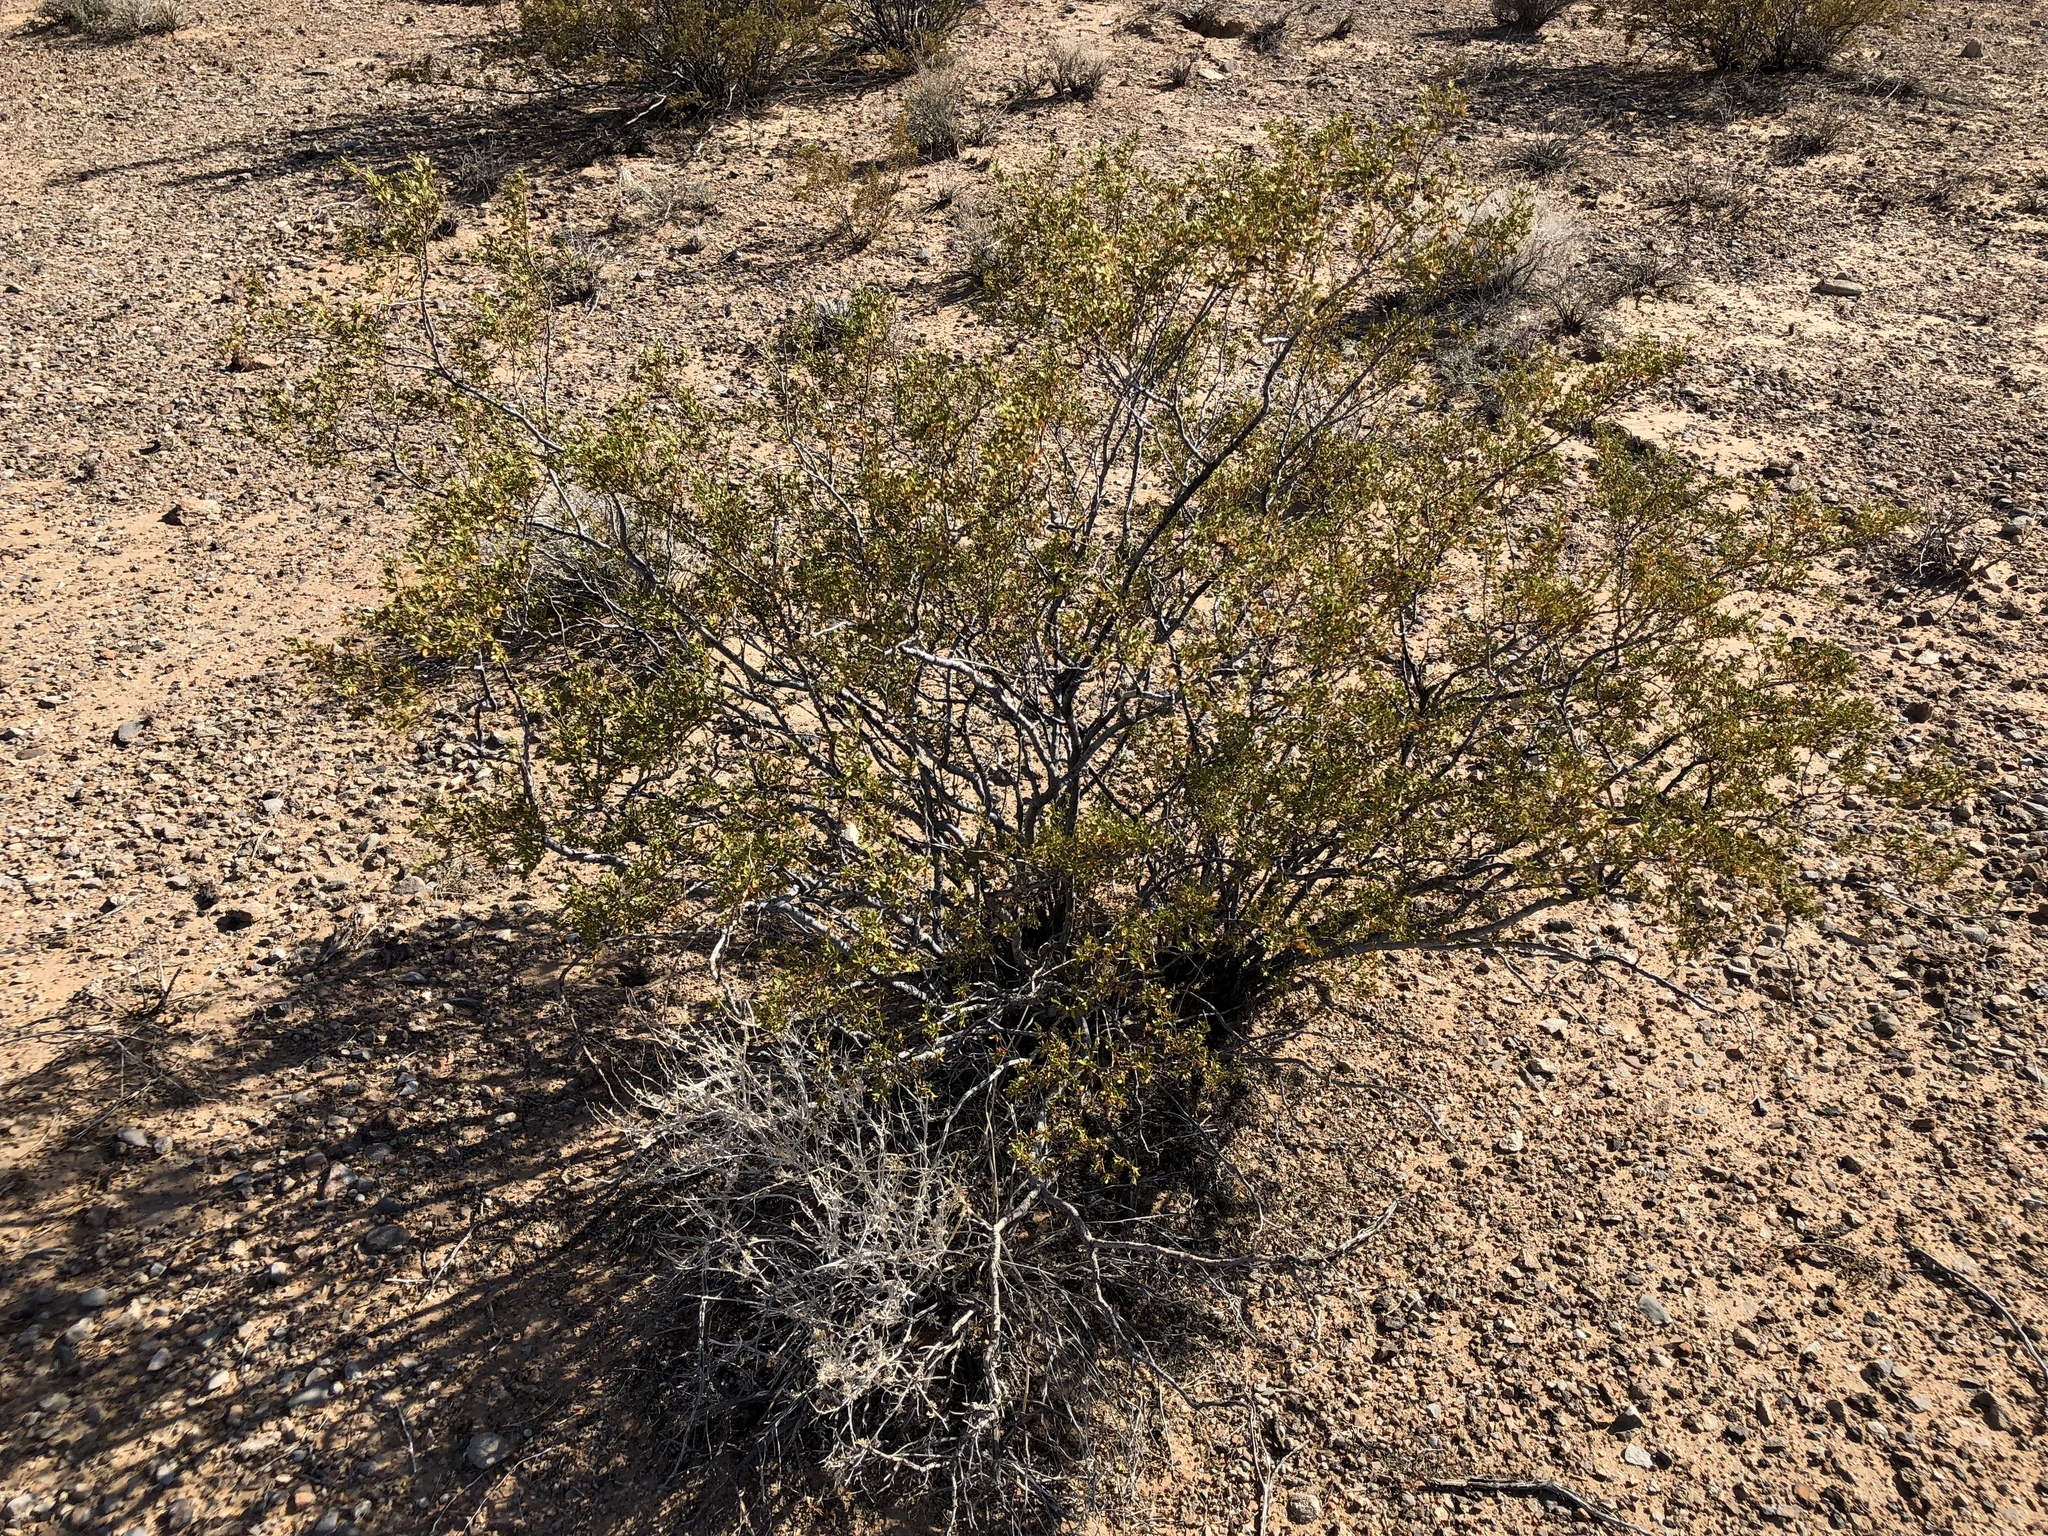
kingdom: Plantae
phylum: Tracheophyta
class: Magnoliopsida
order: Zygophyllales
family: Zygophyllaceae
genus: Larrea
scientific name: Larrea tridentata
